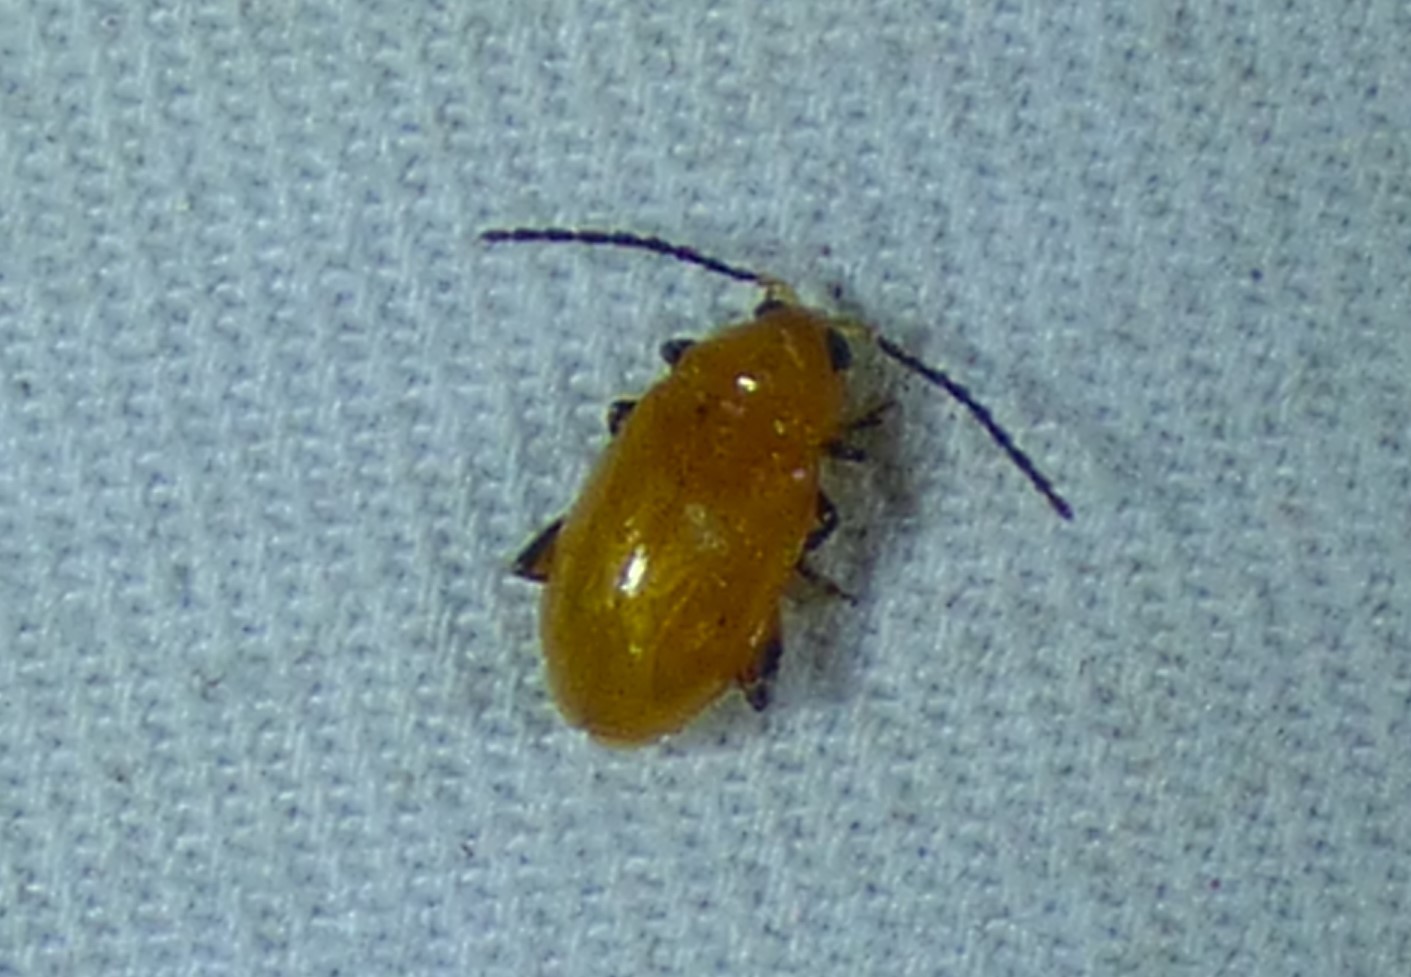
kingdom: Animalia
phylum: Arthropoda
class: Insecta
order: Coleoptera
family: Chrysomelidae
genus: Parchicola
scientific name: Parchicola tibialis
